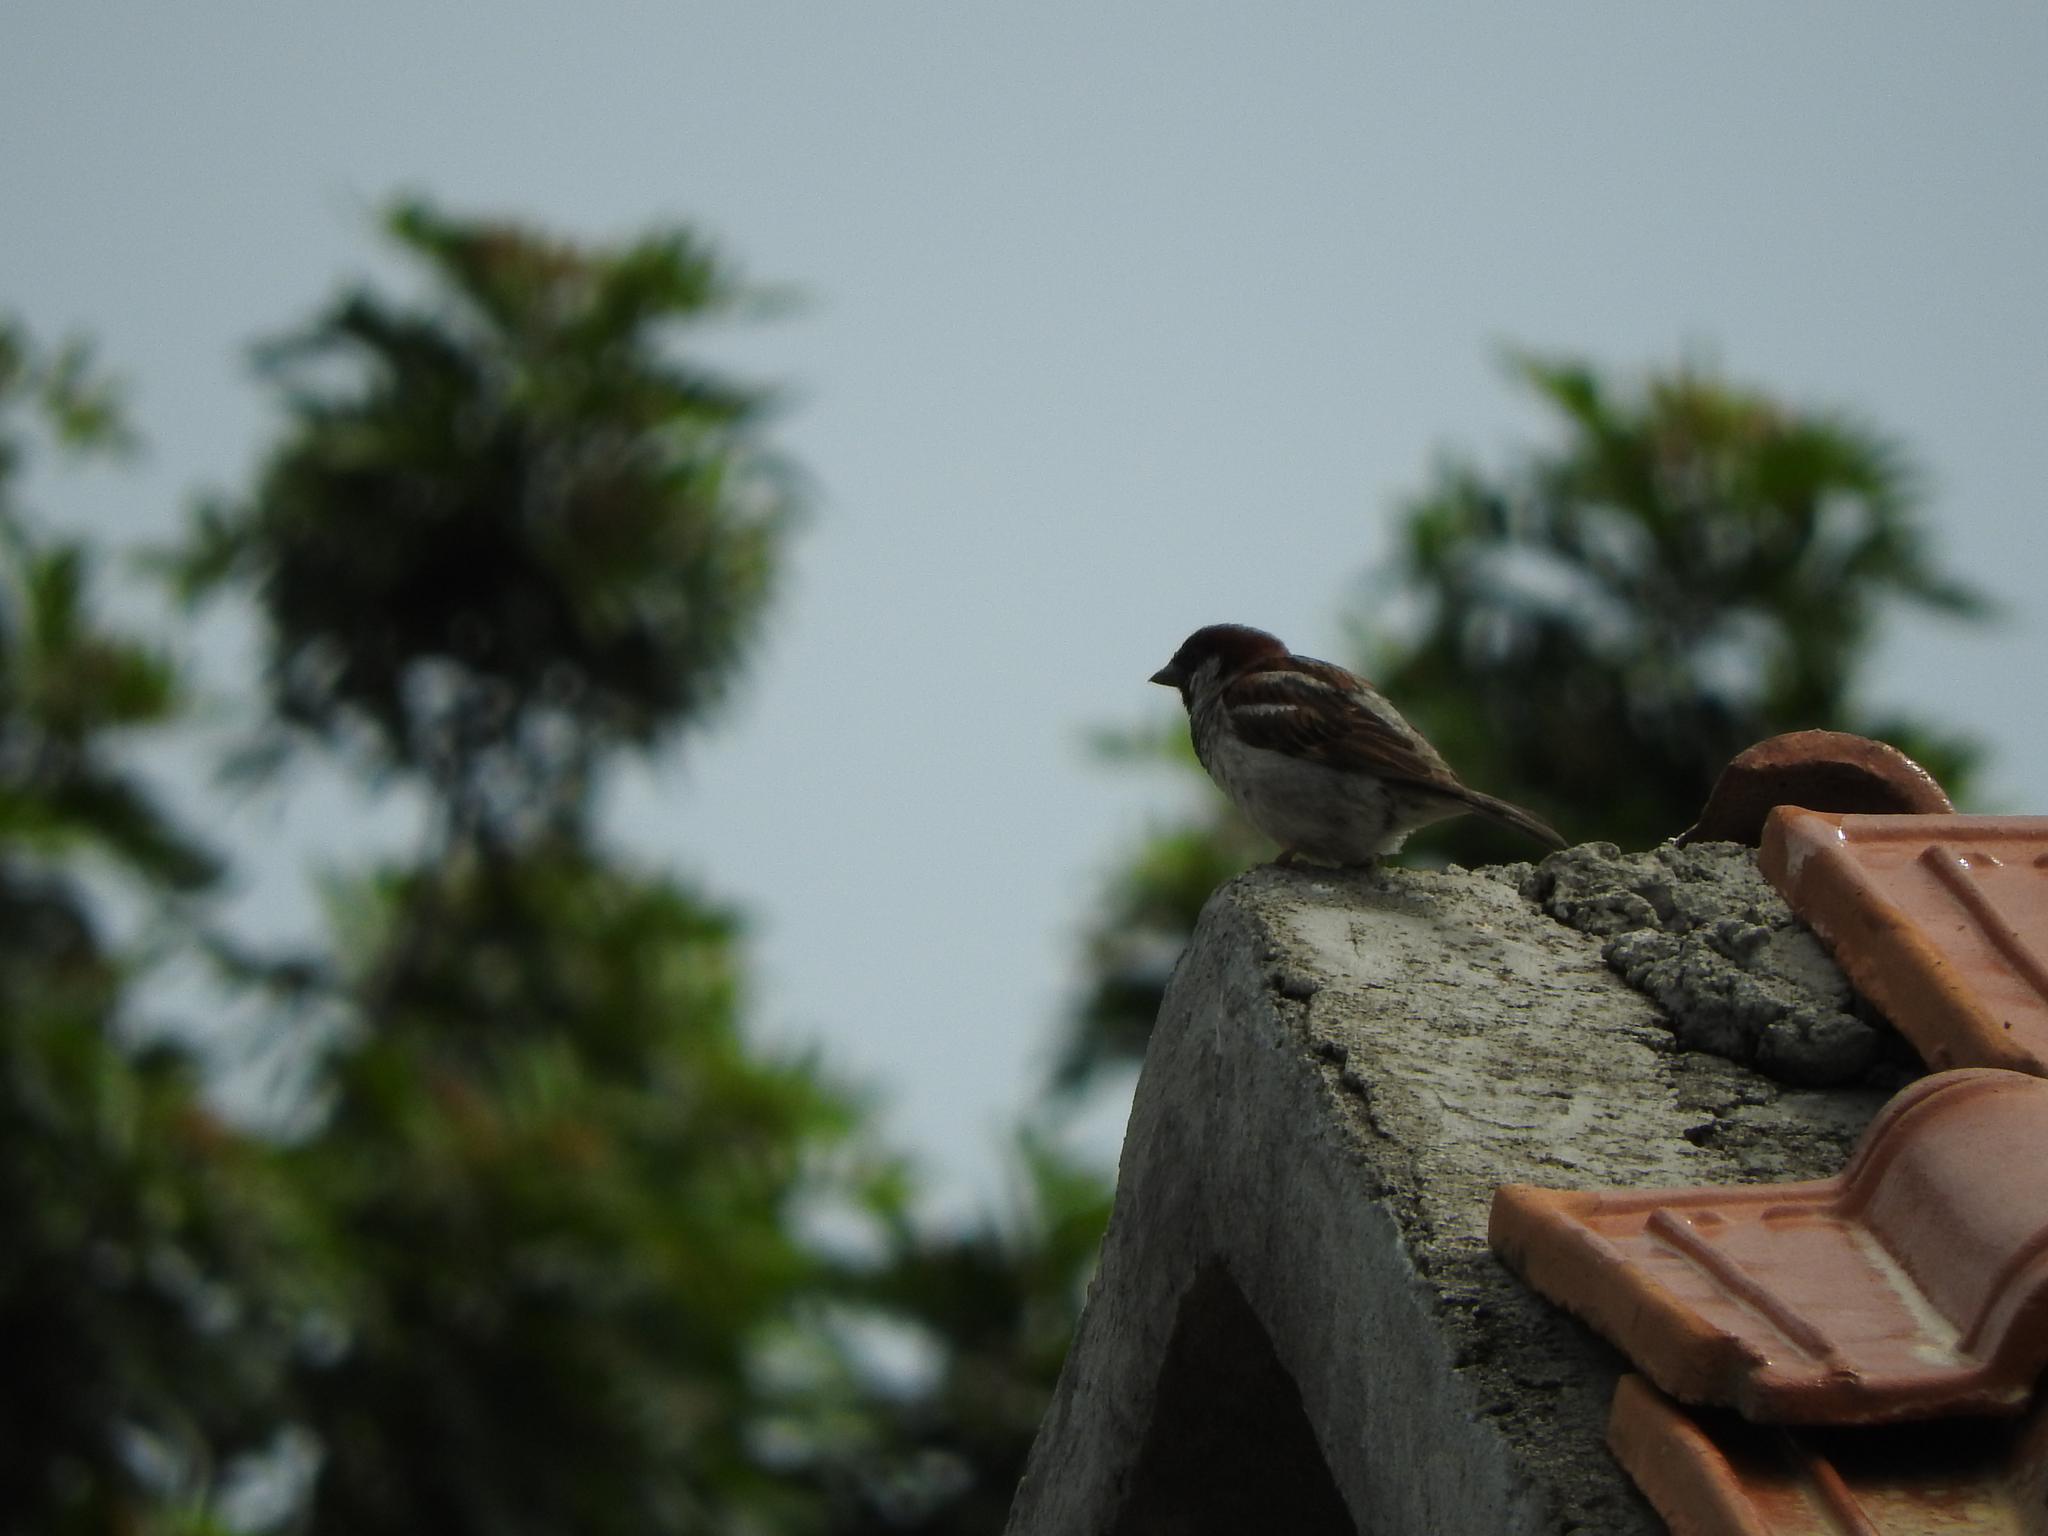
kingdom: Animalia
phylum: Chordata
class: Aves
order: Passeriformes
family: Passeridae
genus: Passer
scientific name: Passer domesticus
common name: House sparrow
